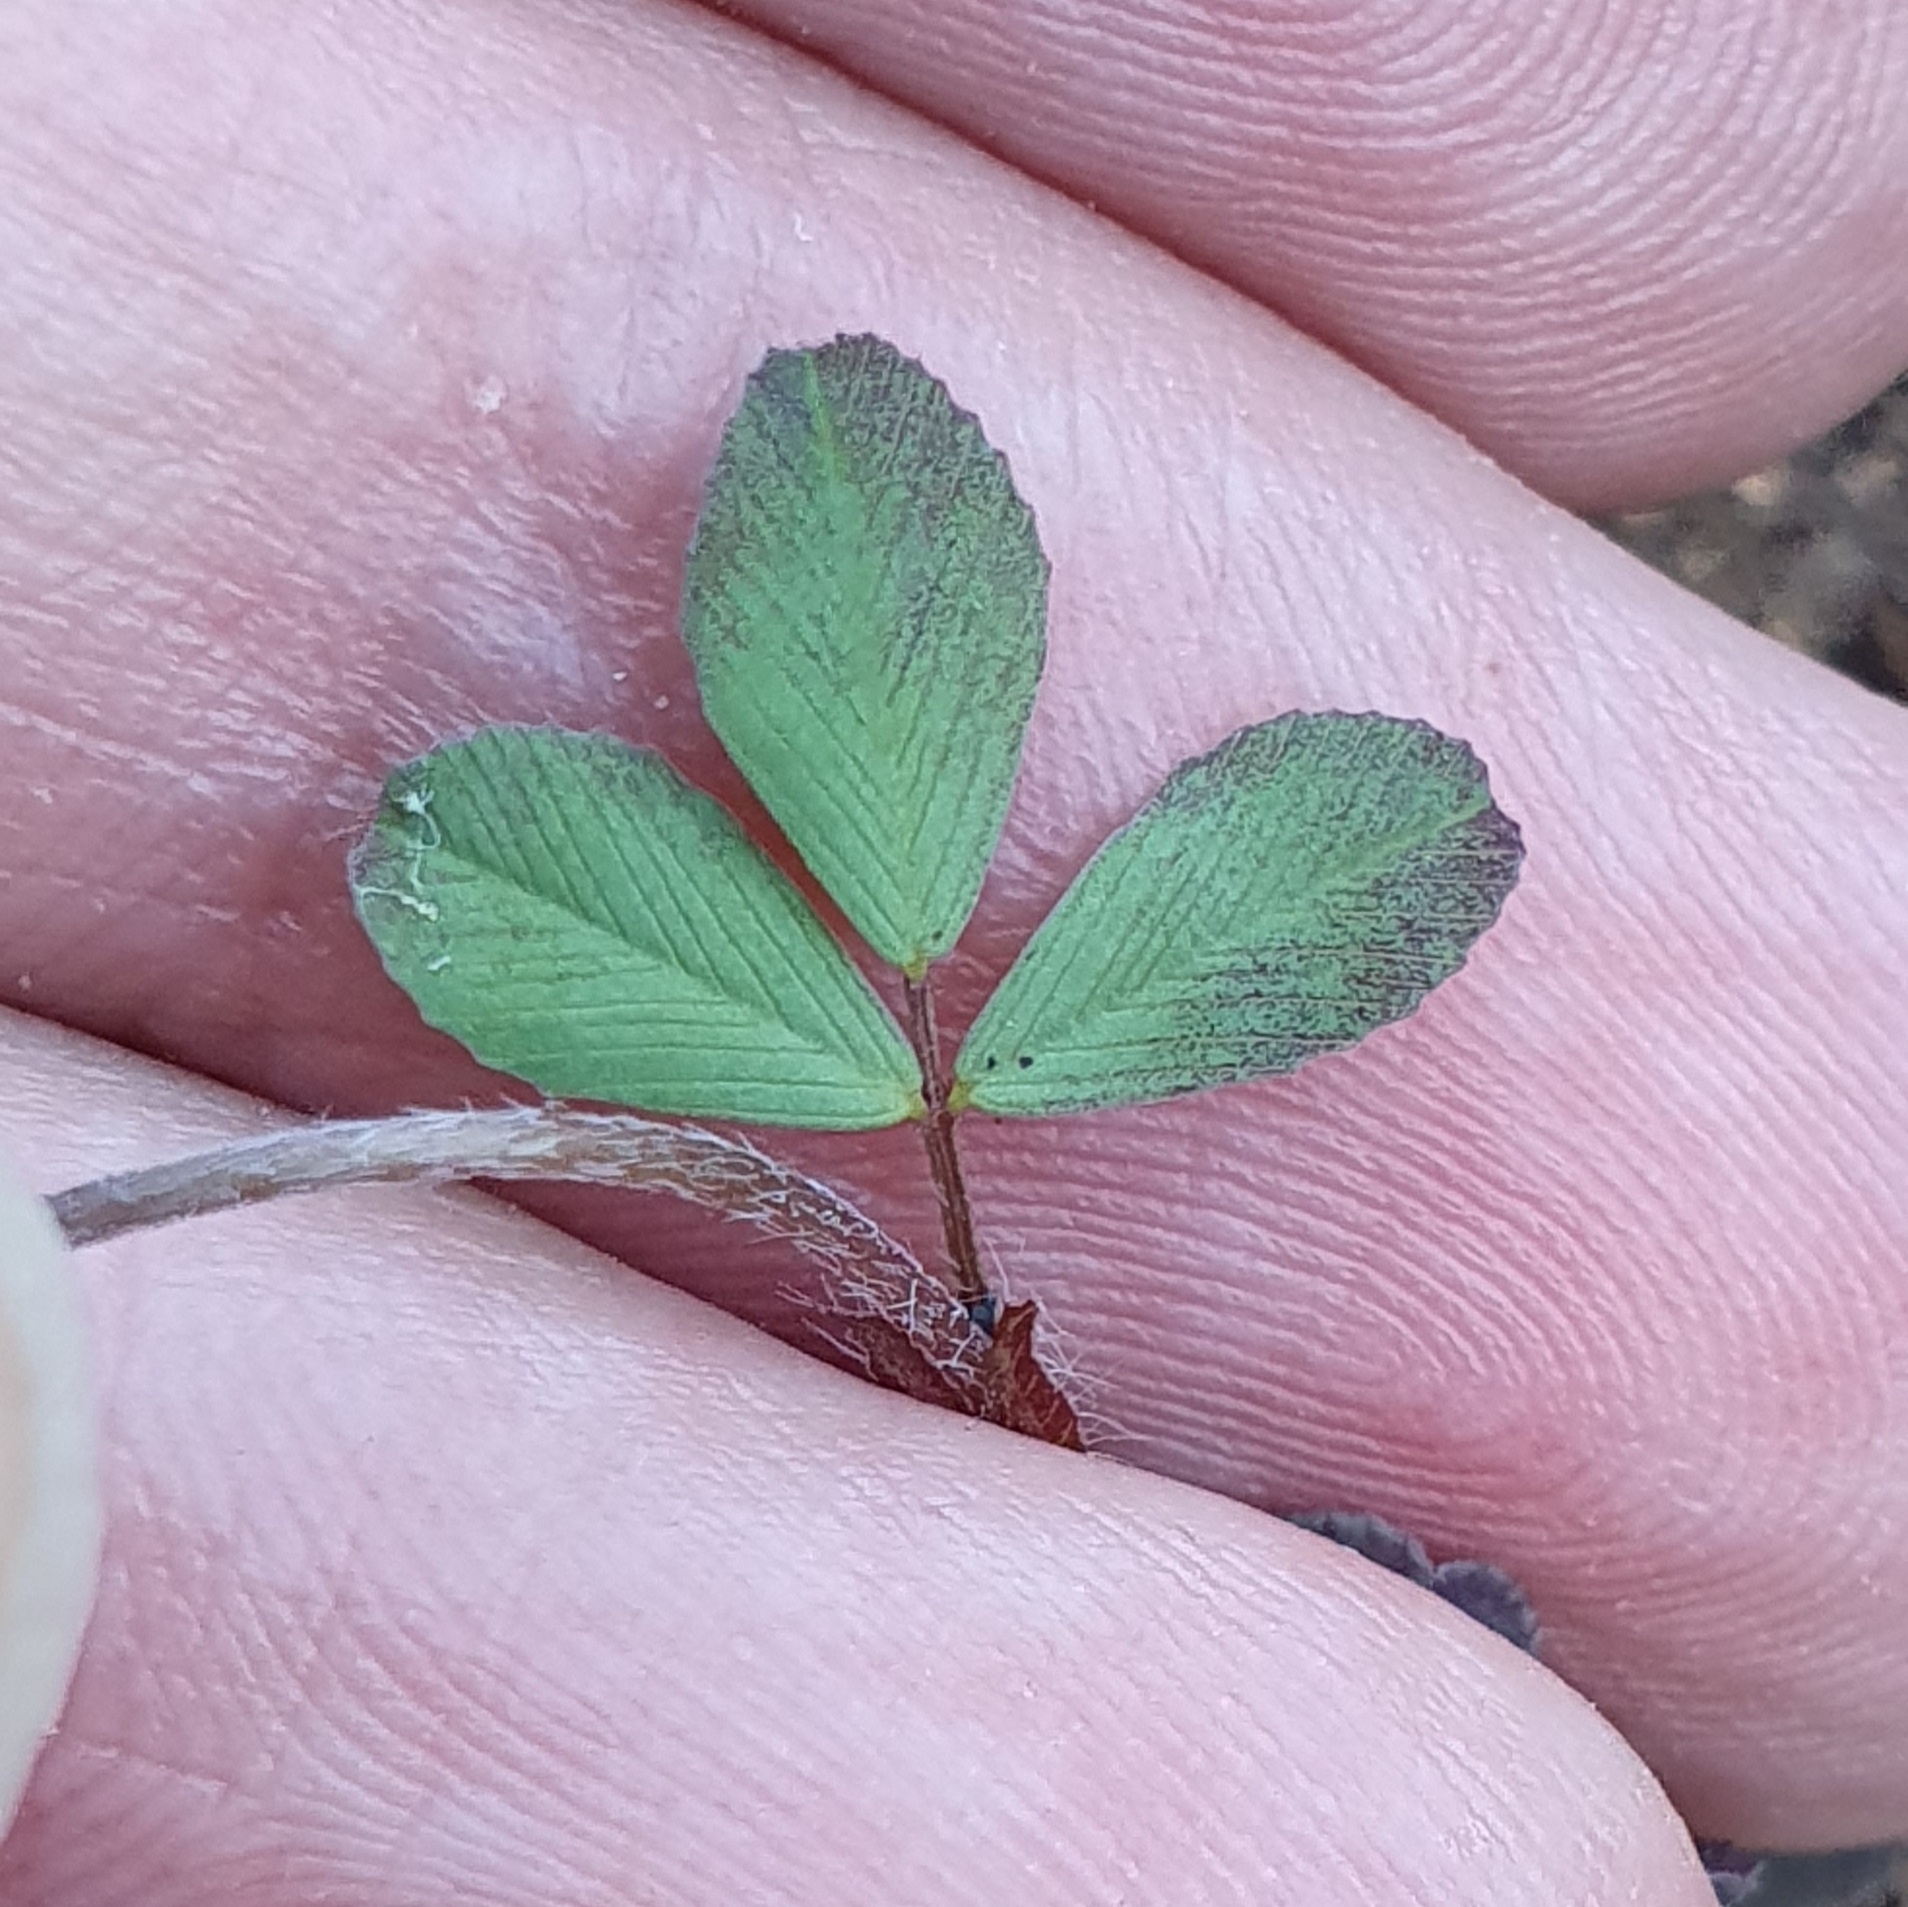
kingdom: Plantae
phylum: Tracheophyta
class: Magnoliopsida
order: Fabales
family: Fabaceae
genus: Trifolium
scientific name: Trifolium campestre
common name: Field clover
